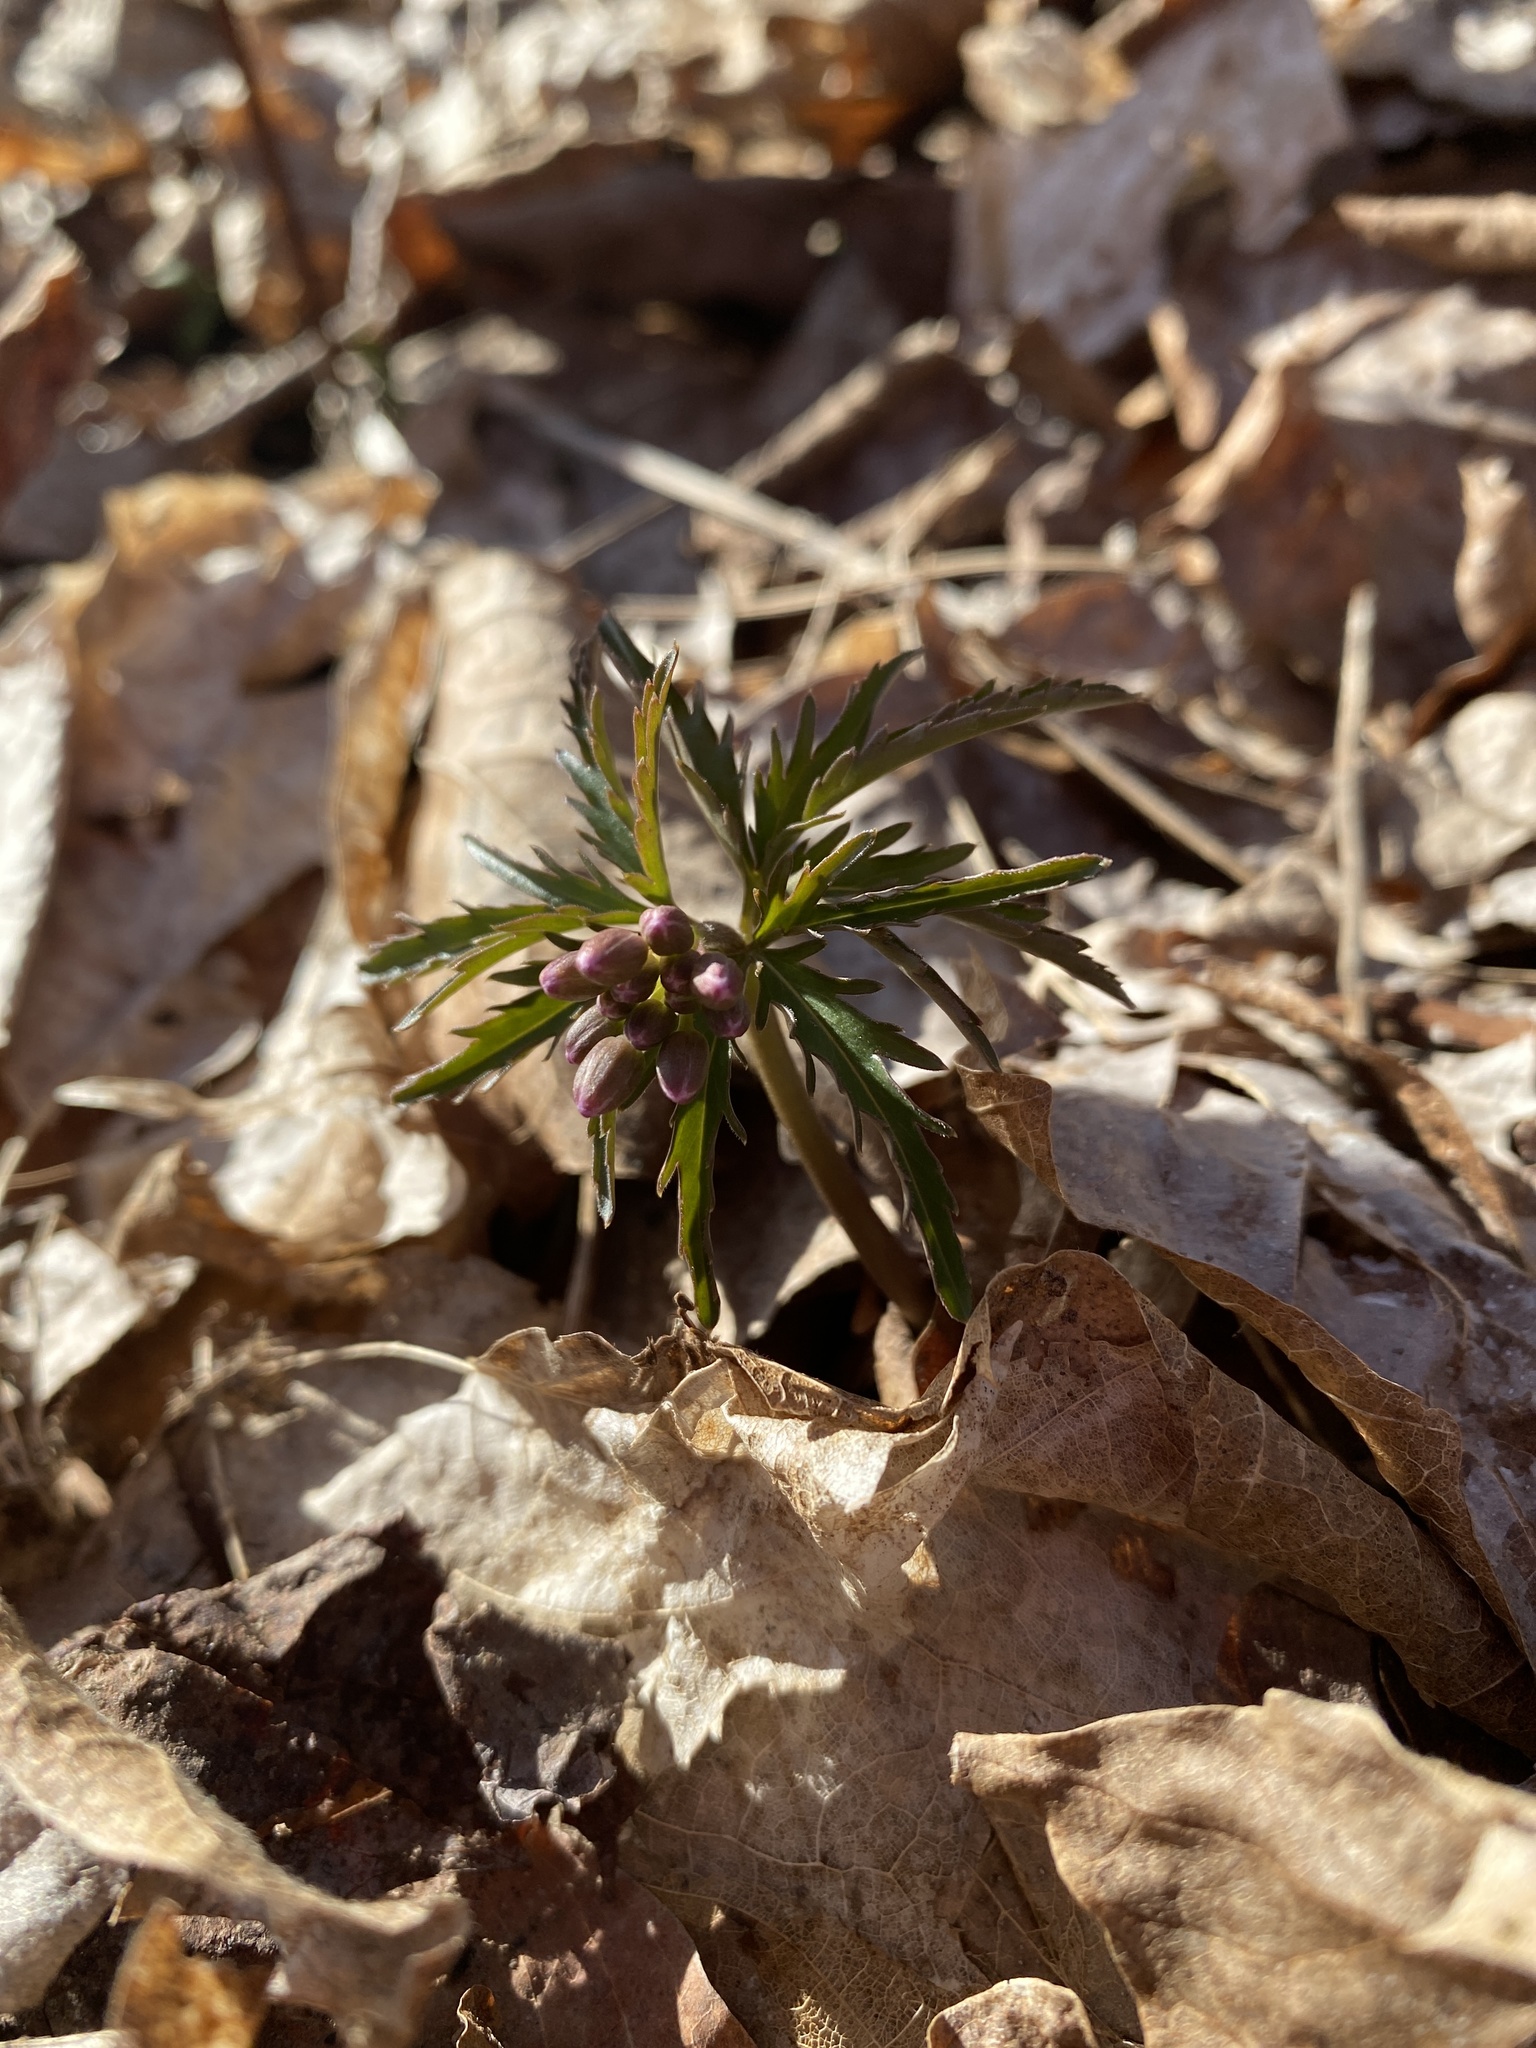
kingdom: Plantae
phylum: Tracheophyta
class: Magnoliopsida
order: Brassicales
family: Brassicaceae
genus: Cardamine
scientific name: Cardamine concatenata
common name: Cut-leaf toothcup
